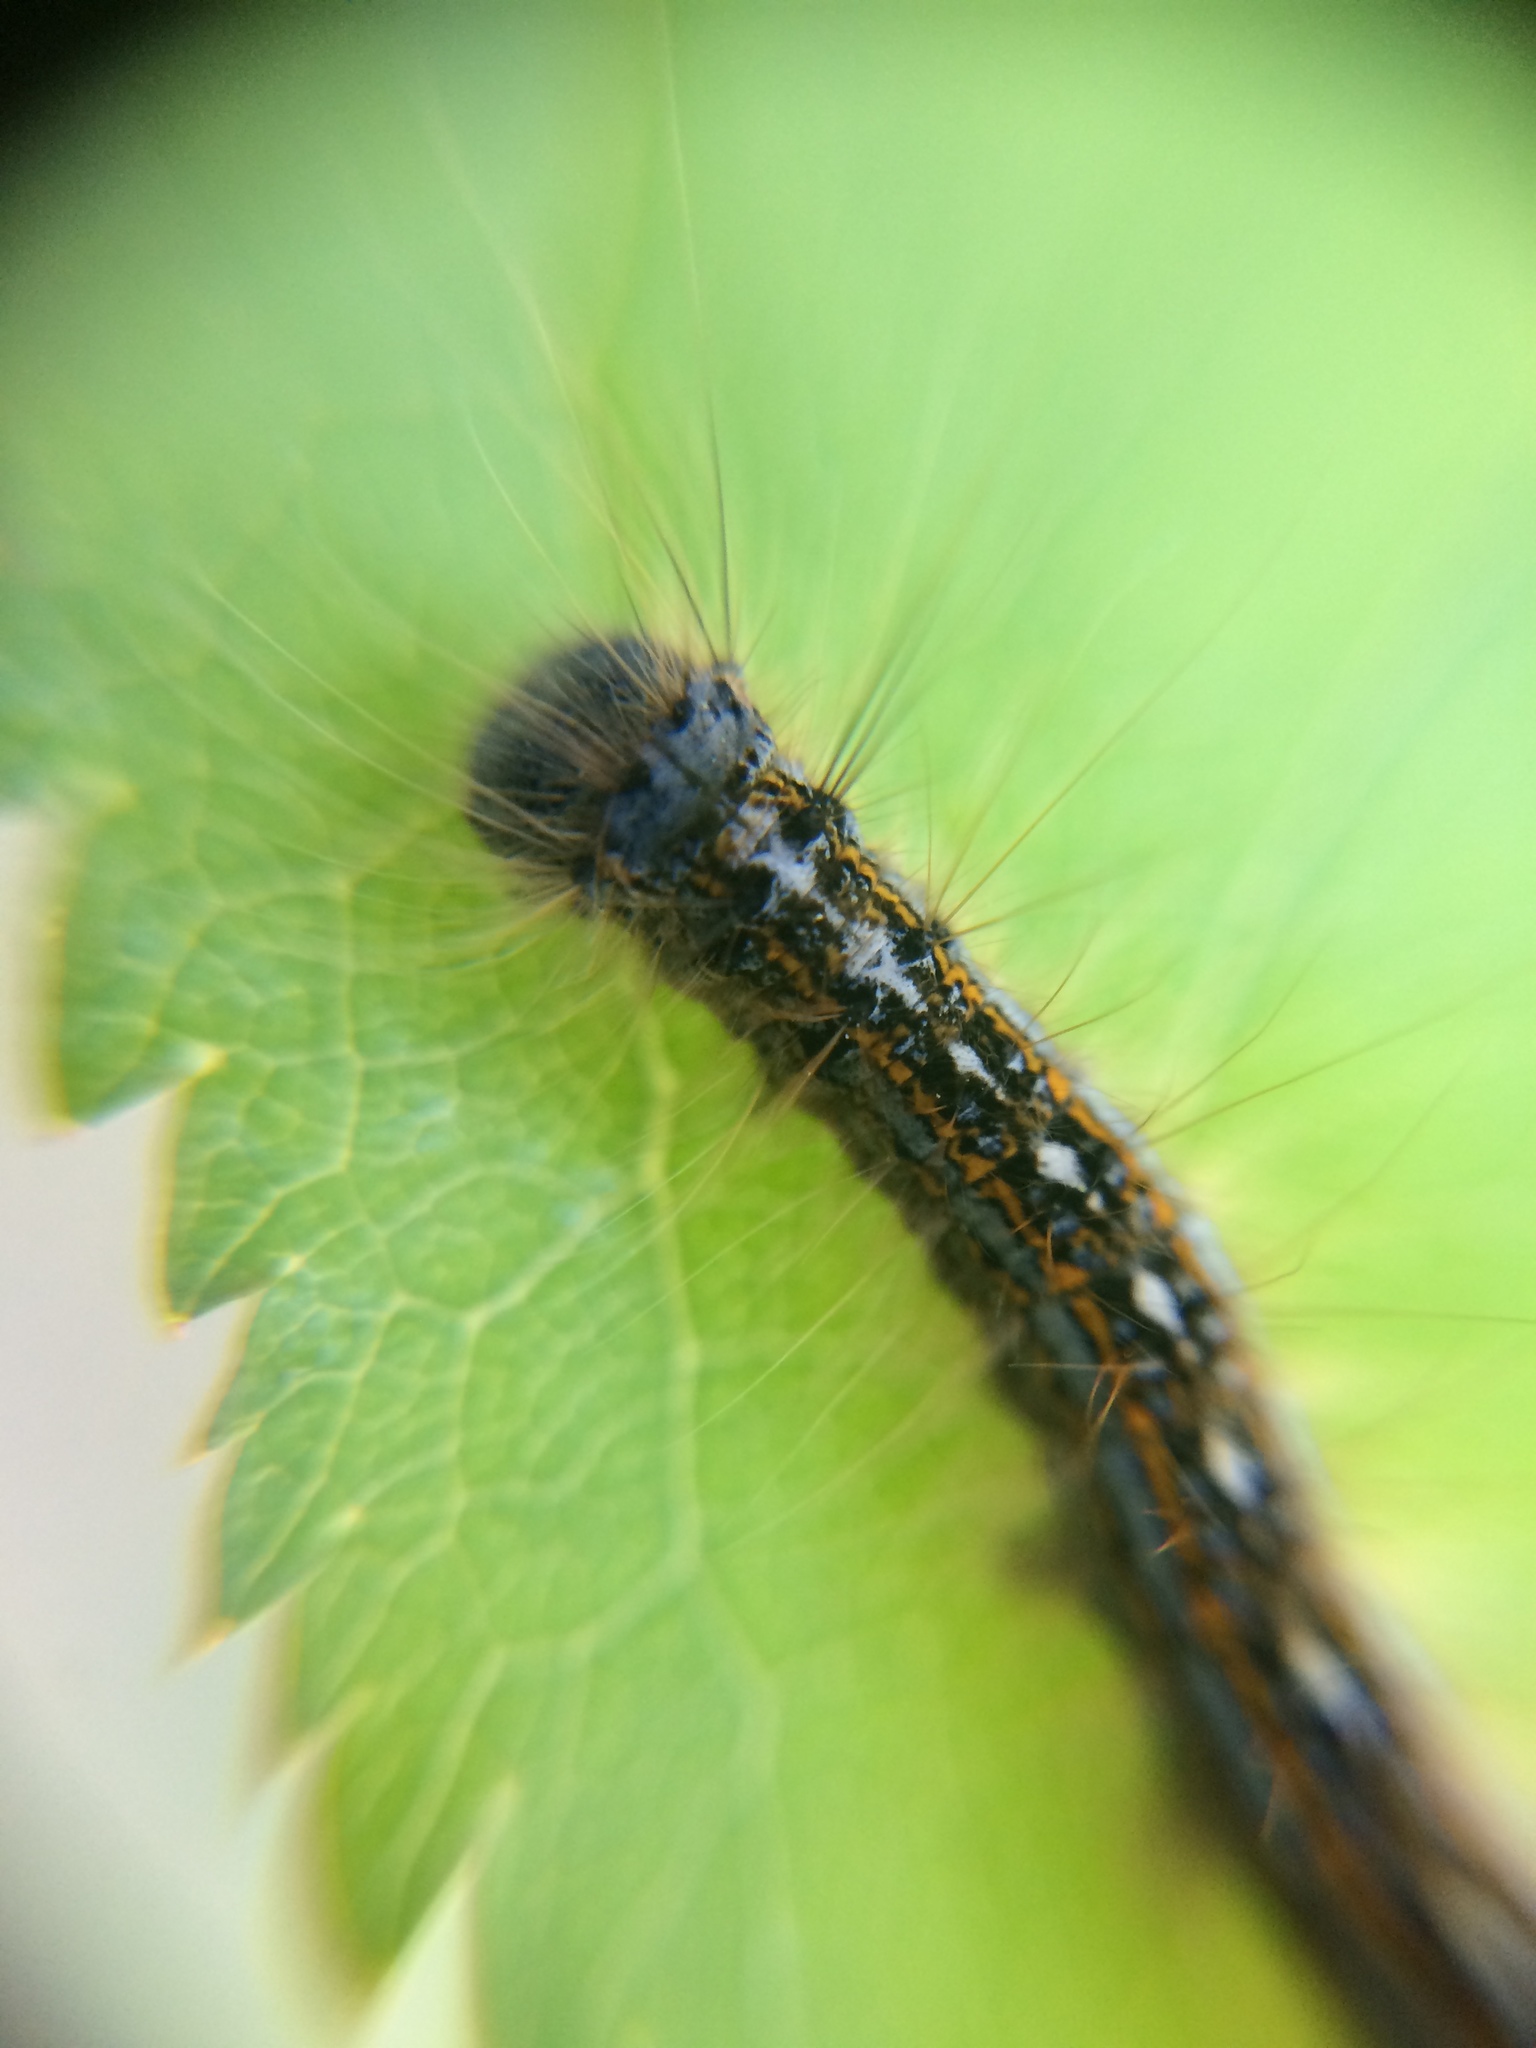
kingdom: Animalia
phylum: Arthropoda
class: Insecta
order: Lepidoptera
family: Lasiocampidae
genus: Malacosoma
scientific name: Malacosoma disstria
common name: Forest tent caterpillar
